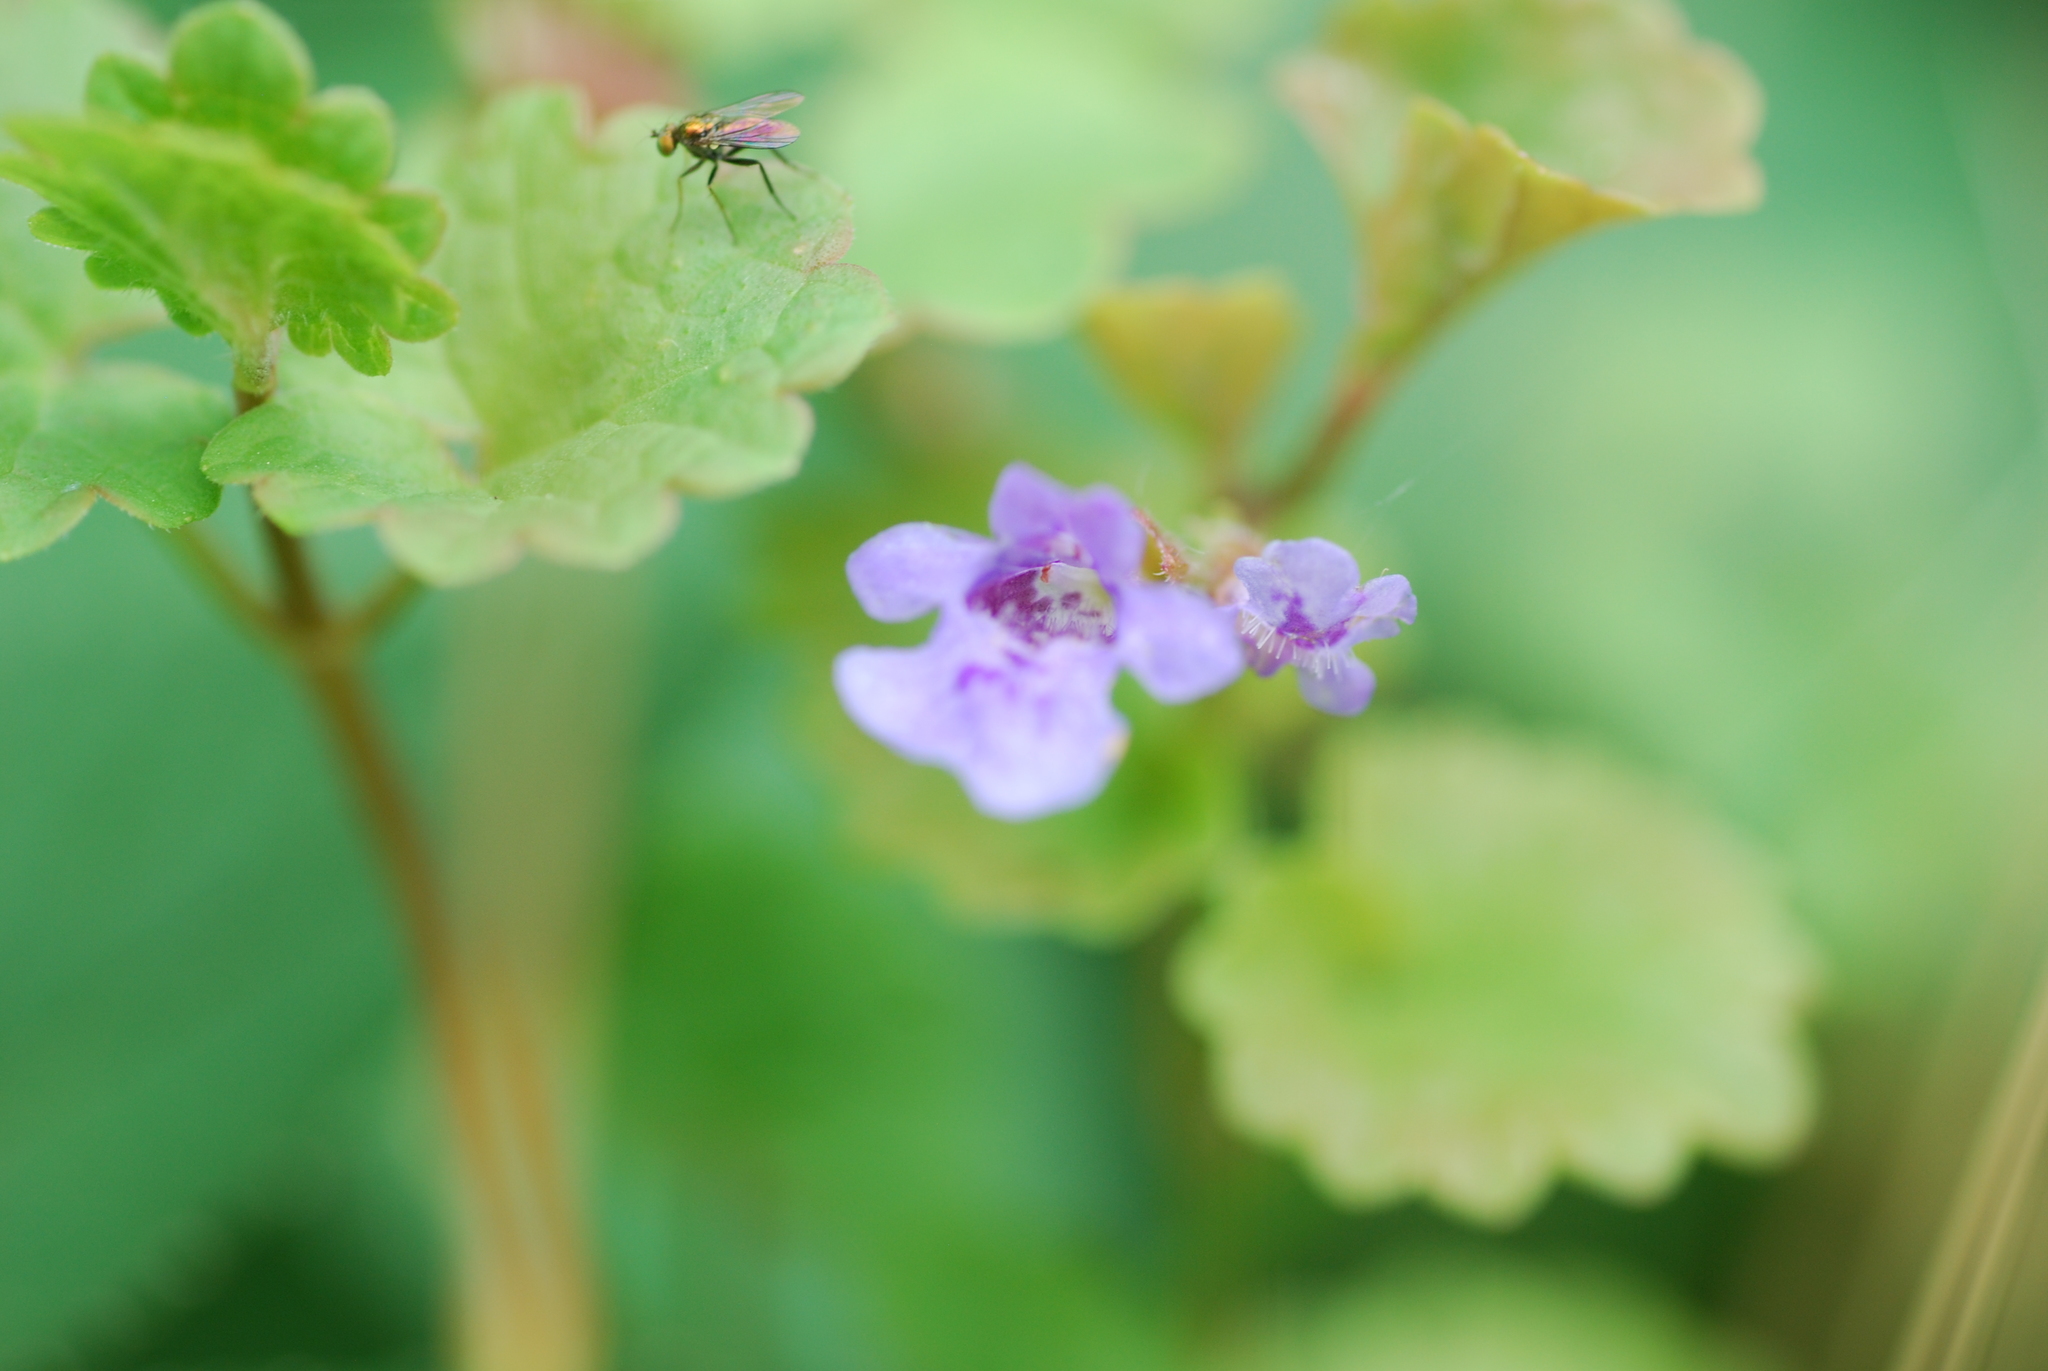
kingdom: Plantae
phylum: Tracheophyta
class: Magnoliopsida
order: Lamiales
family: Lamiaceae
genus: Glechoma
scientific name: Glechoma hederacea
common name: Ground ivy
